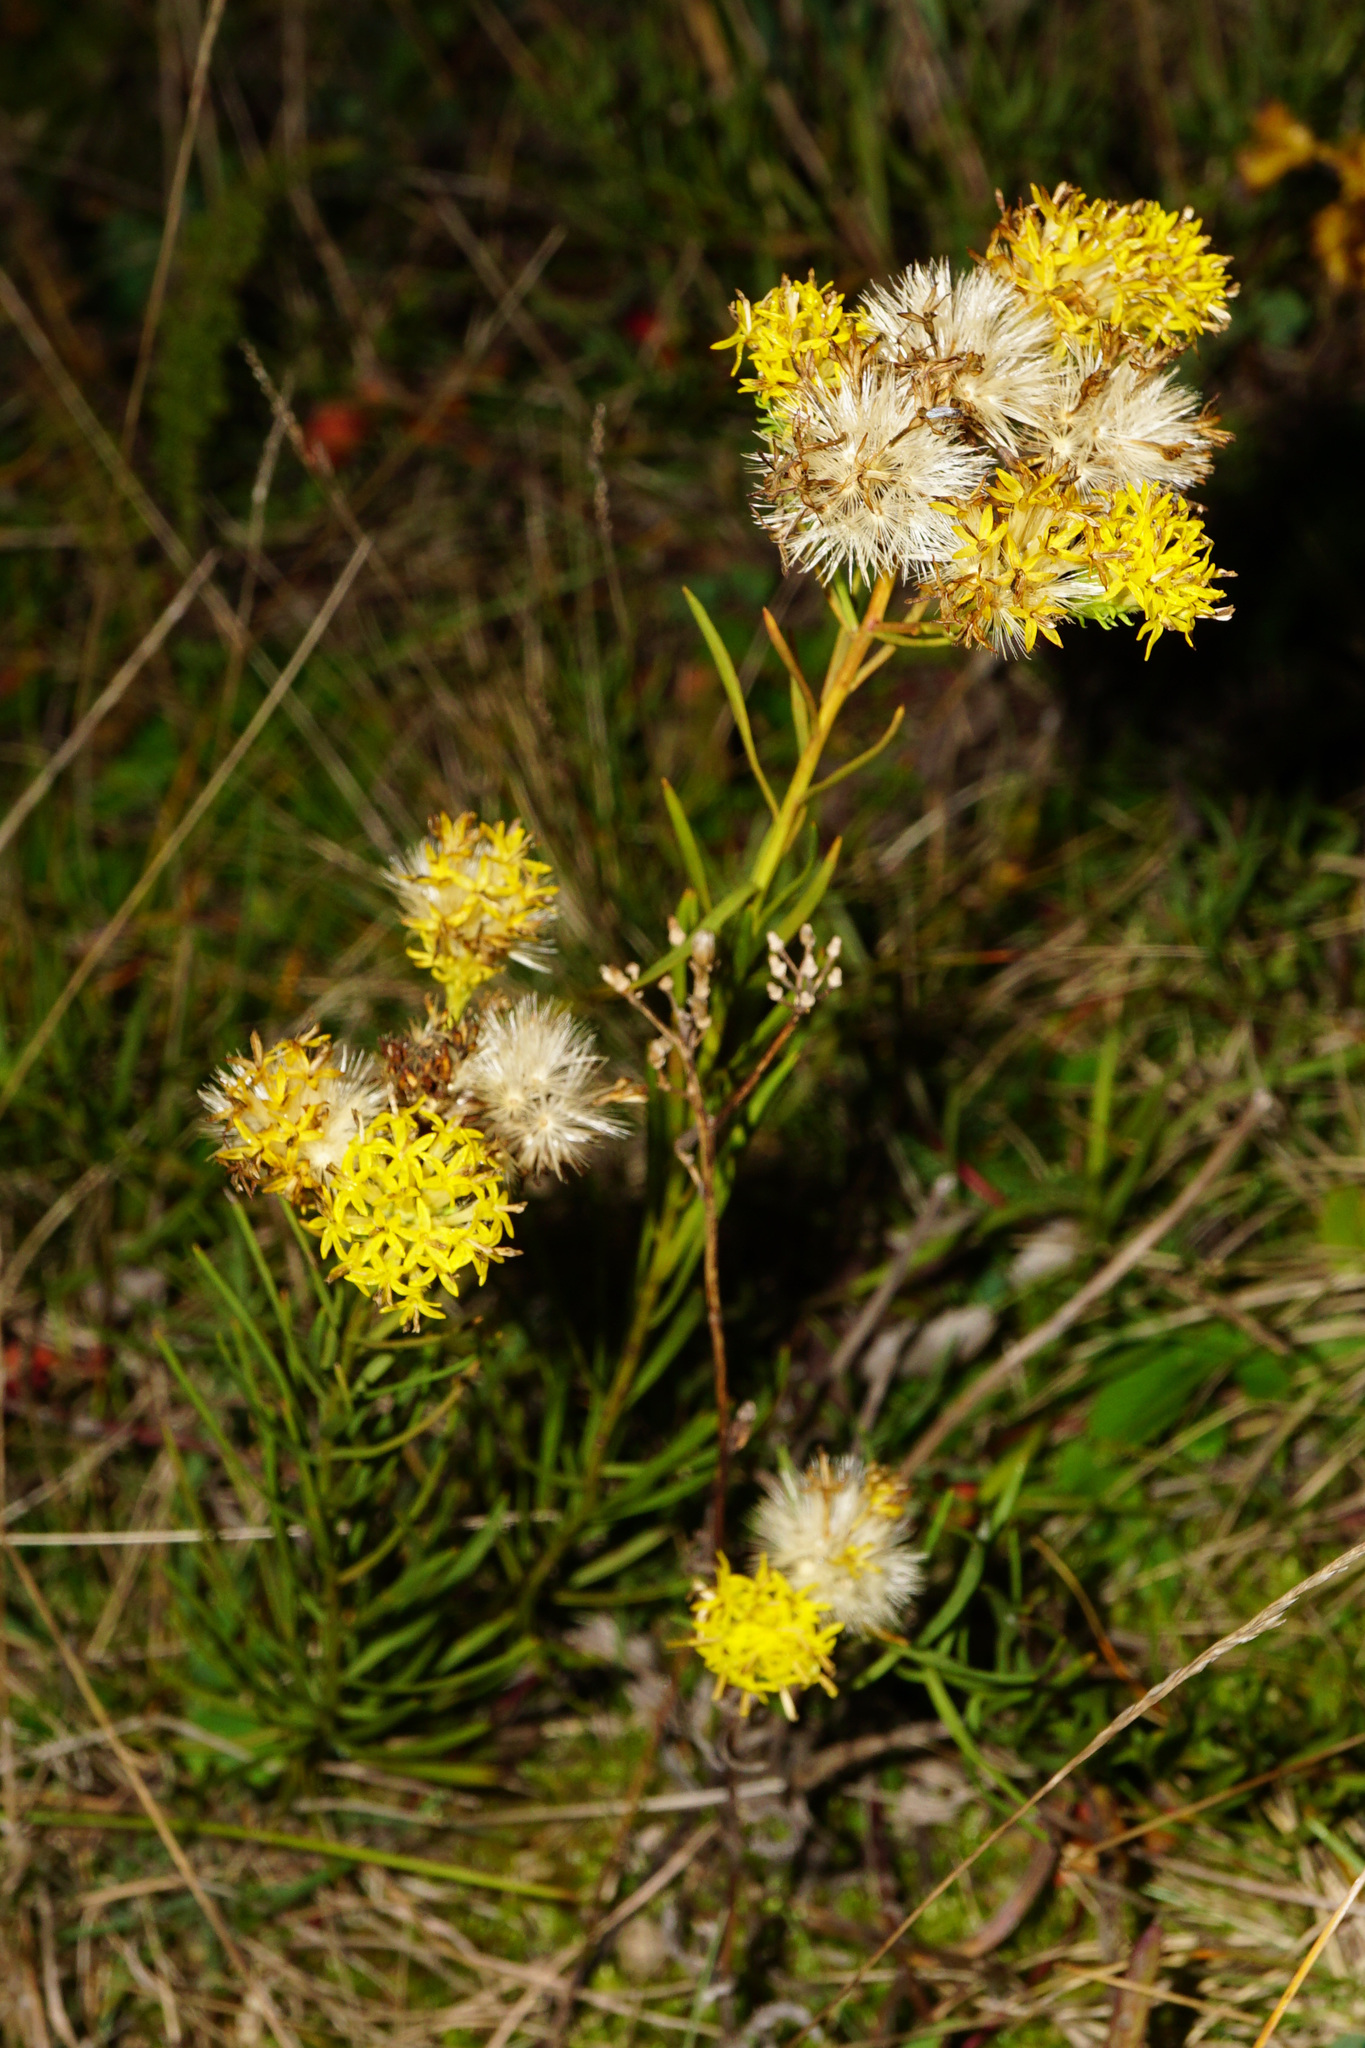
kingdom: Plantae
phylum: Tracheophyta
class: Magnoliopsida
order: Asterales
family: Asteraceae
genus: Galatella
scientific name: Galatella linosyris
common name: Goldilocks aster
